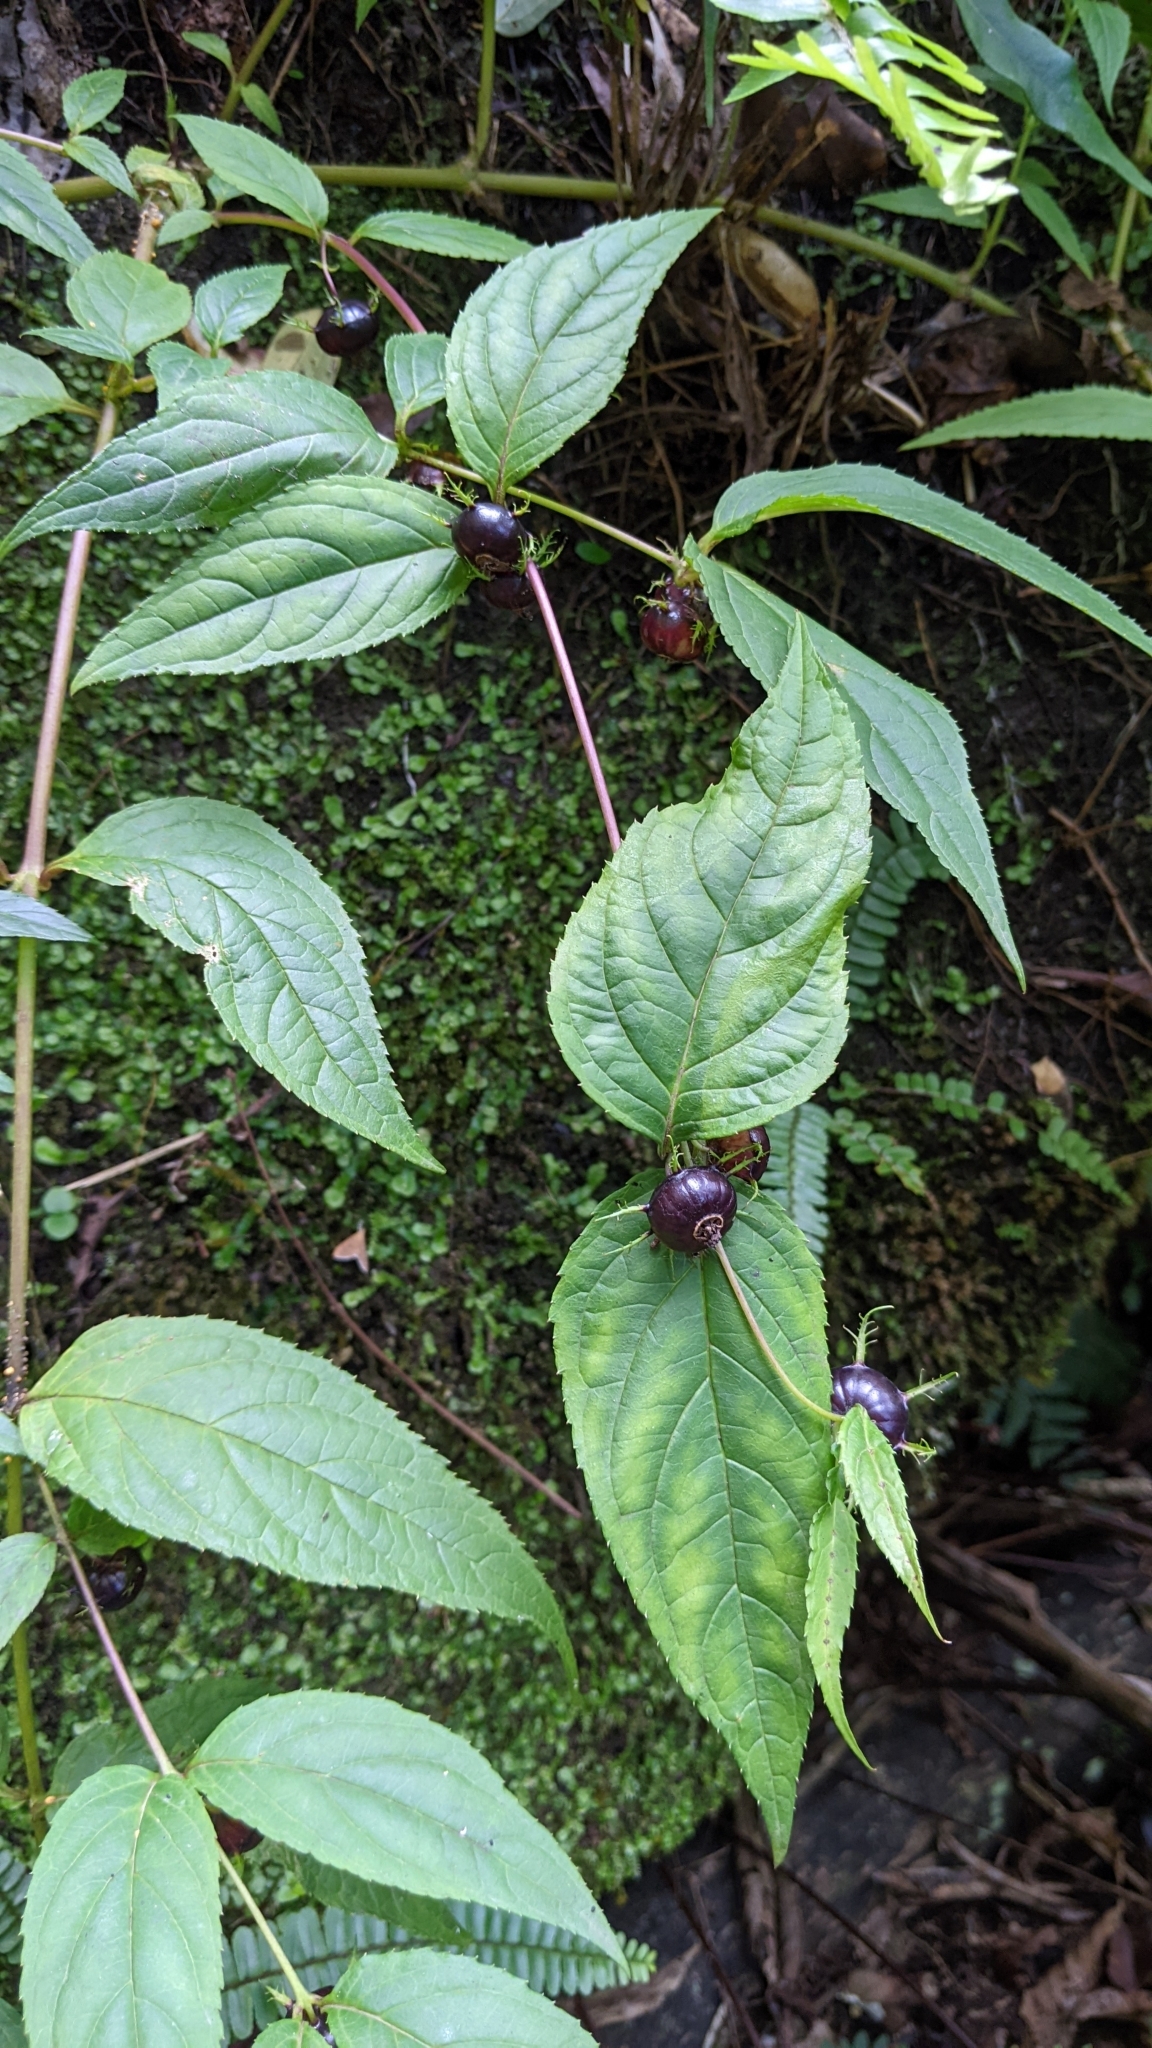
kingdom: Plantae
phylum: Tracheophyta
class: Magnoliopsida
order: Asterales
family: Campanulaceae
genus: Cyclocodon
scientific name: Cyclocodon lancifolius
